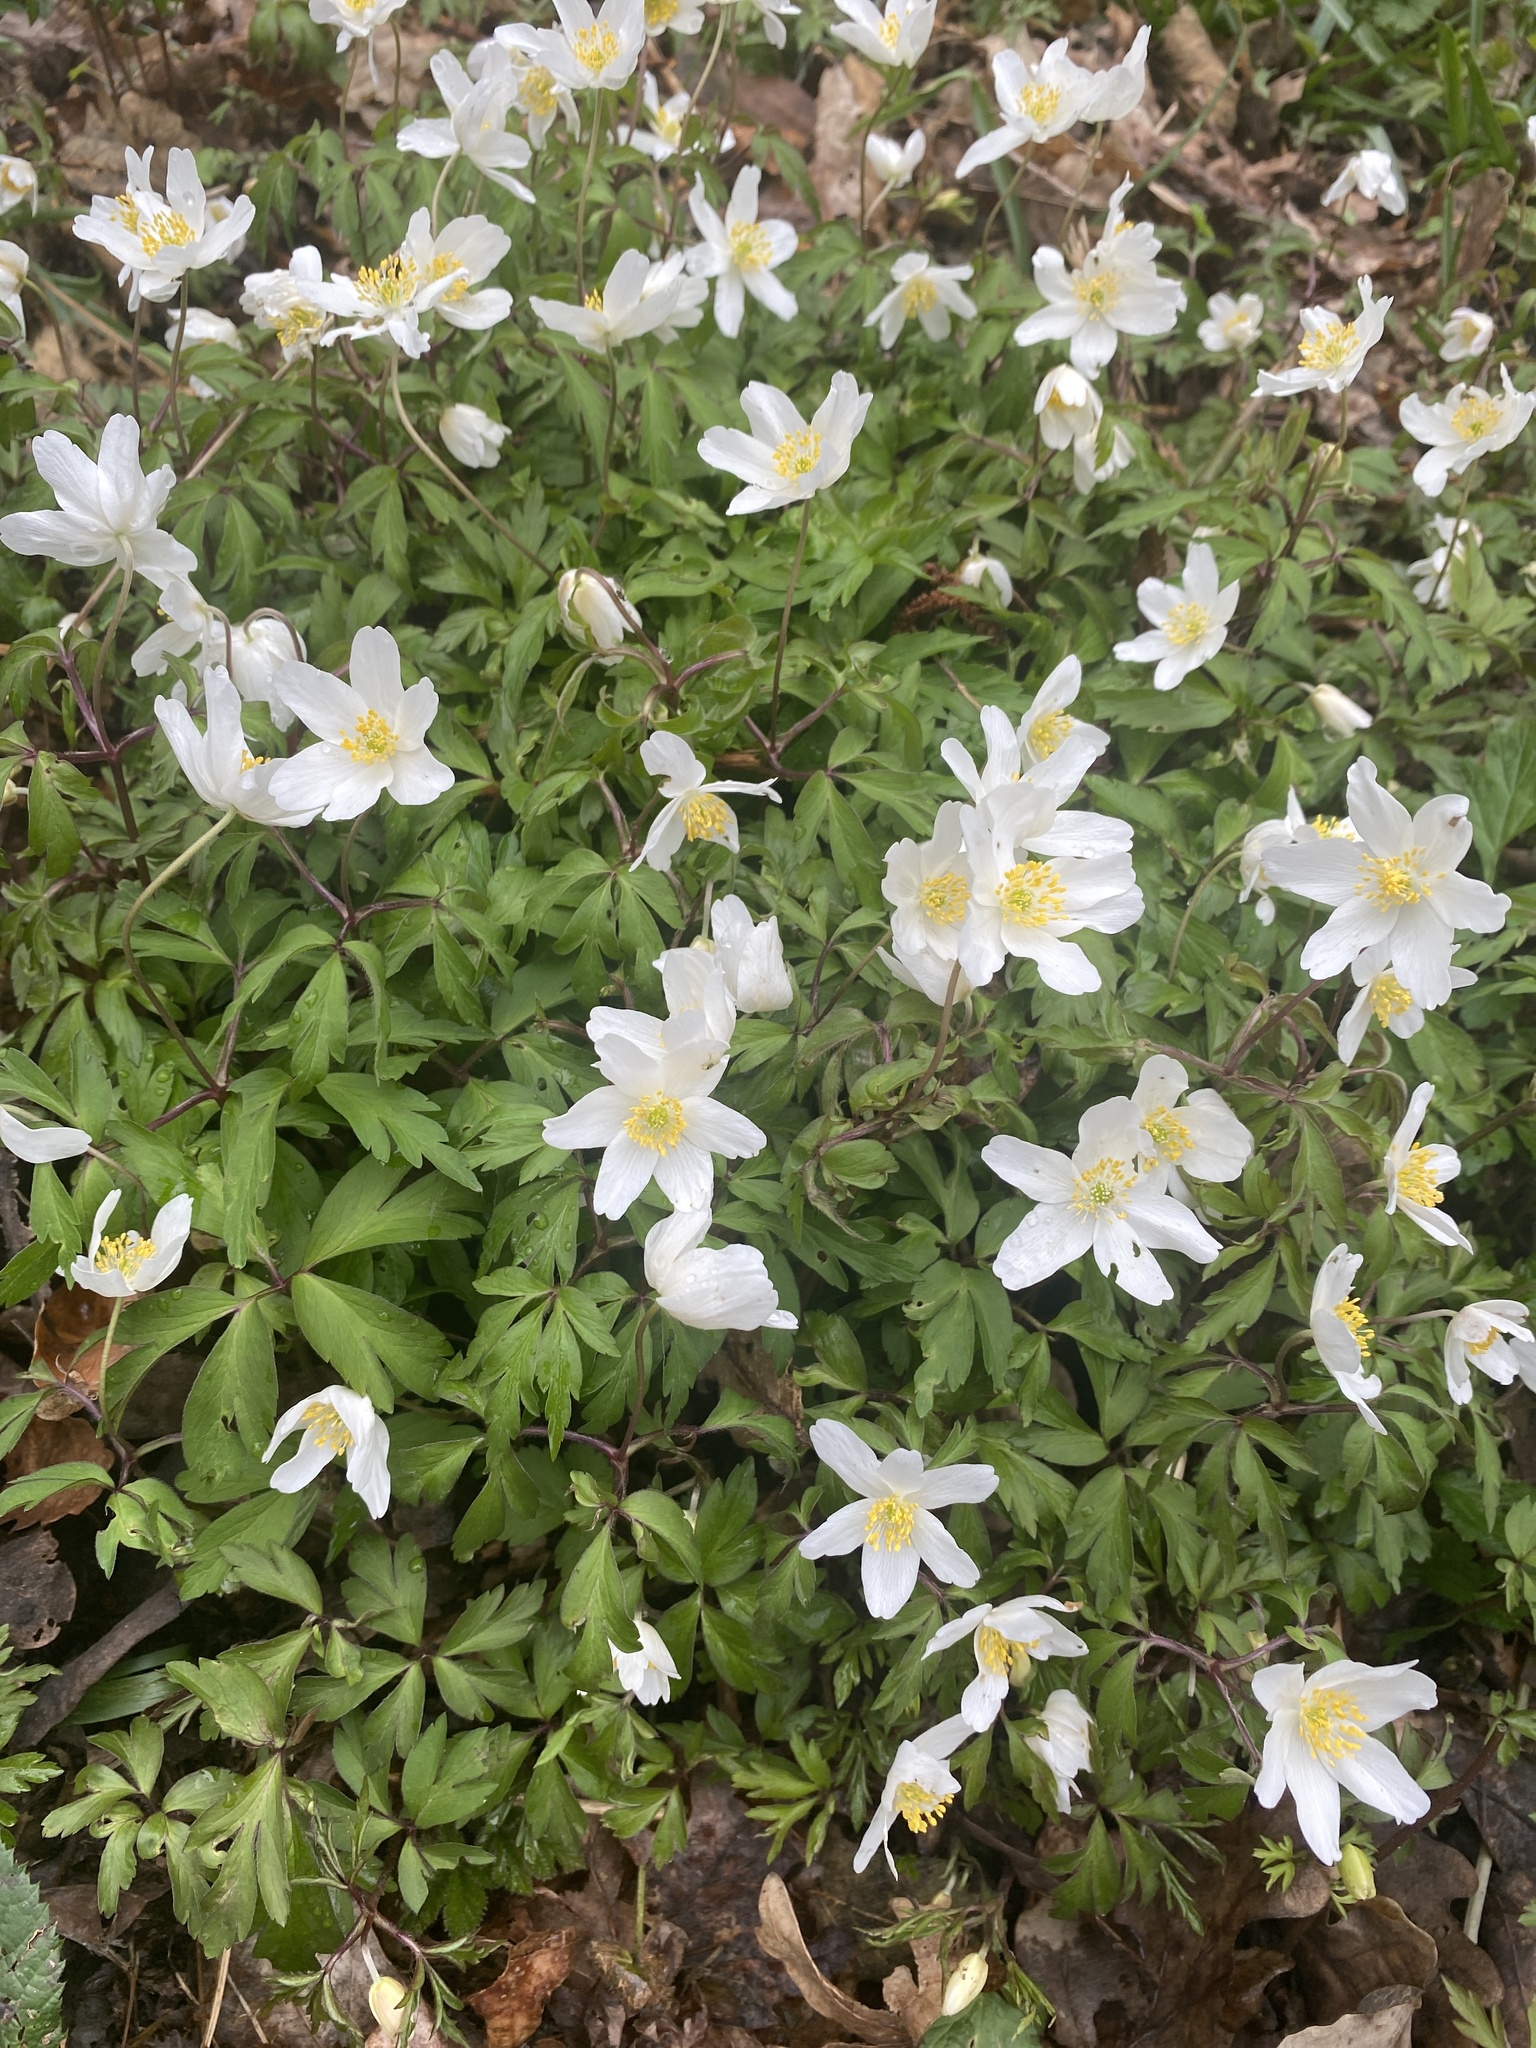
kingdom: Plantae
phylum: Tracheophyta
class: Magnoliopsida
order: Ranunculales
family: Ranunculaceae
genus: Anemone
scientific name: Anemone nemorosa
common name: Wood anemone
